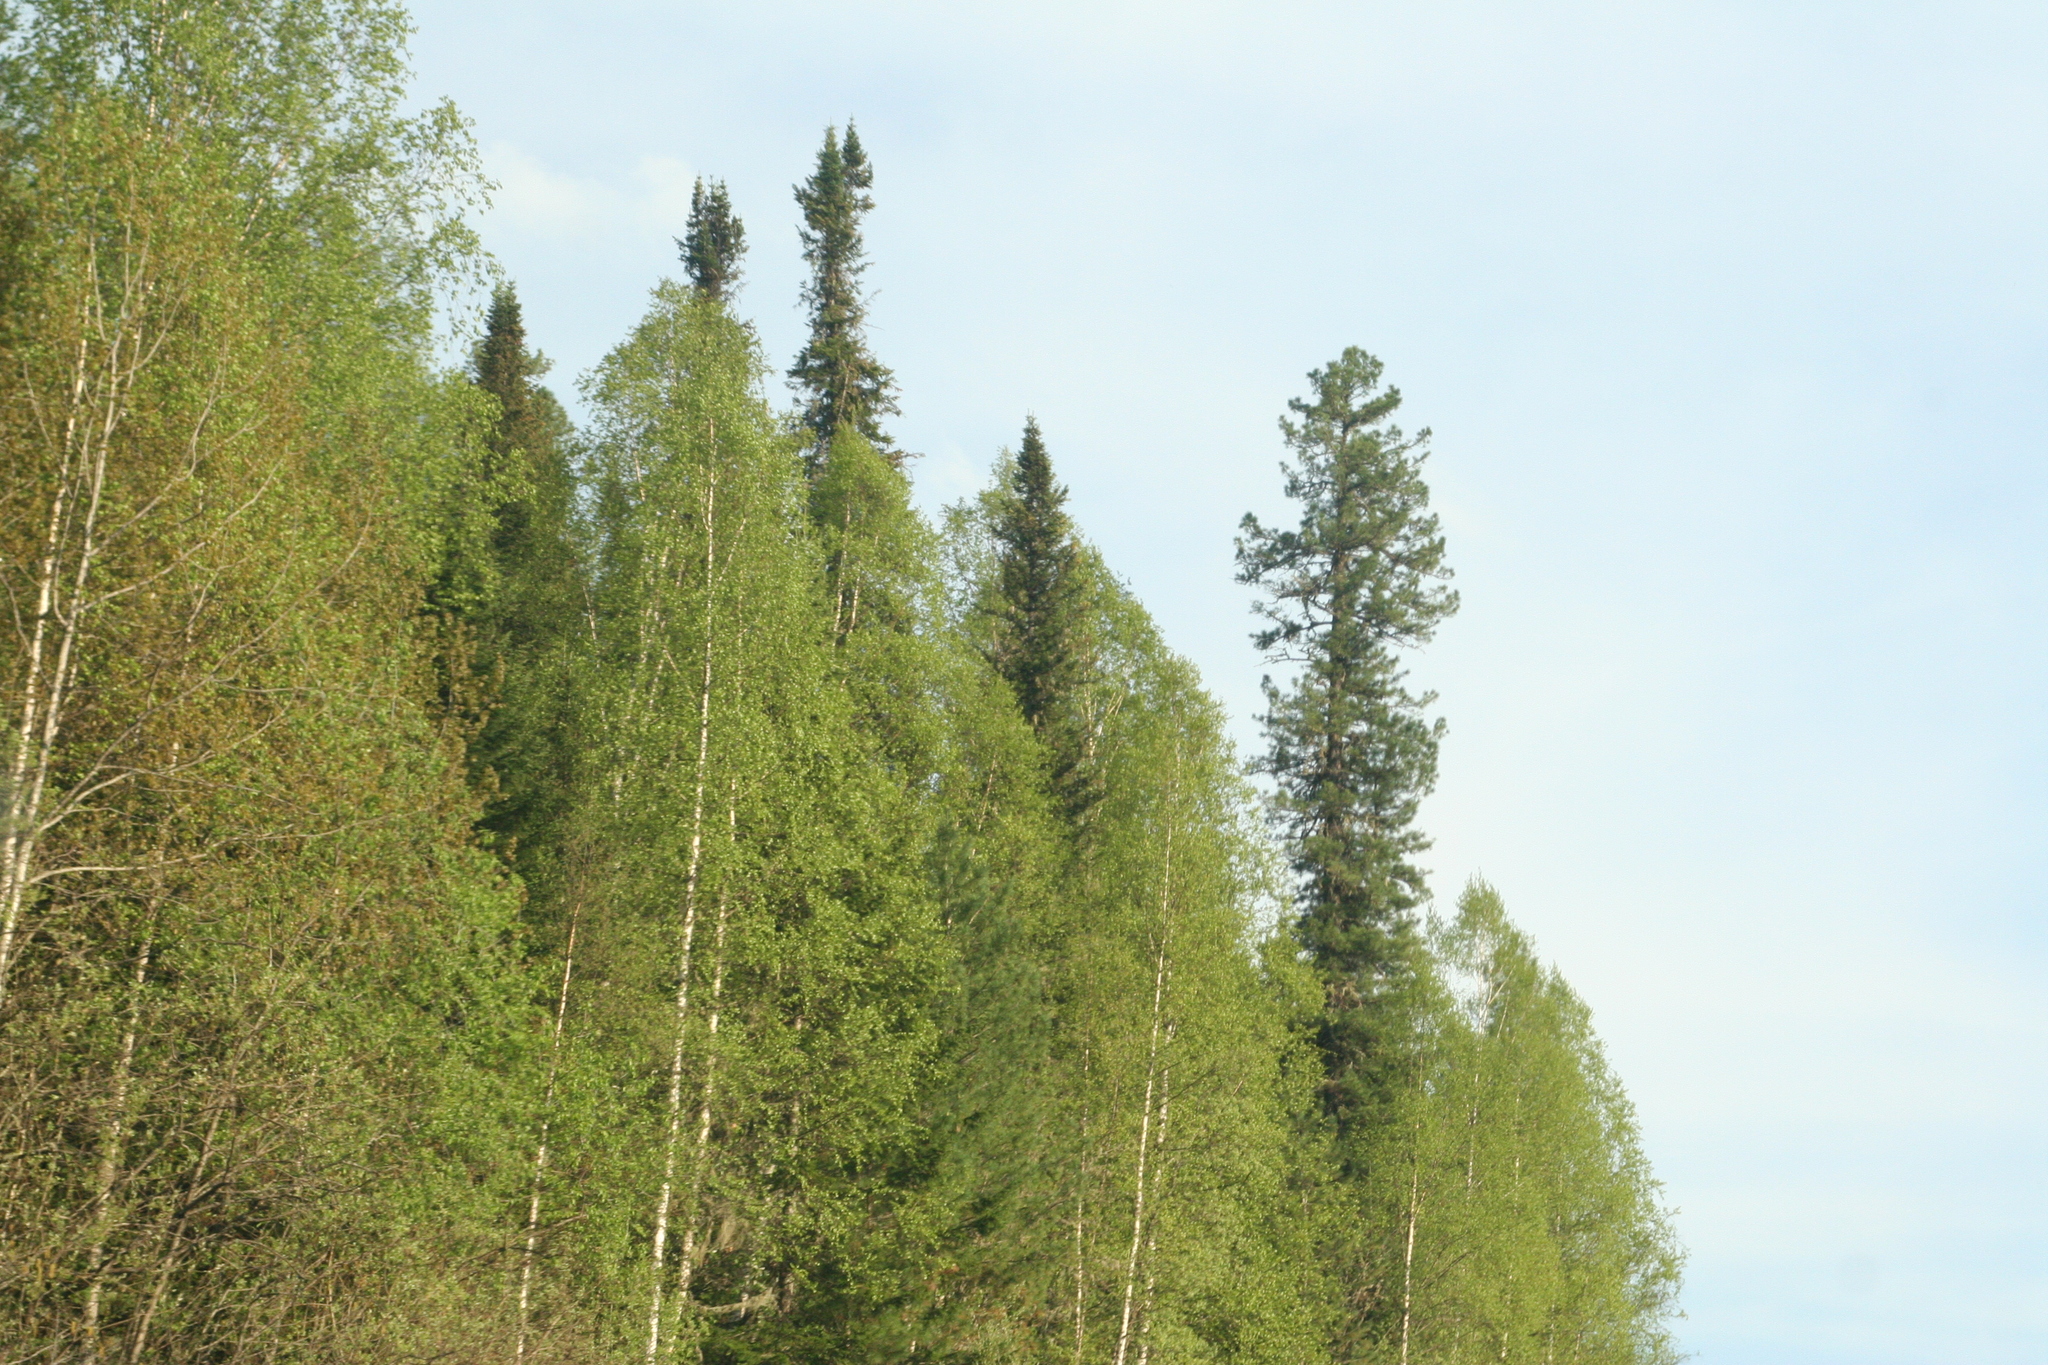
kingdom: Plantae
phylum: Tracheophyta
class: Pinopsida
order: Pinales
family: Pinaceae
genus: Pinus
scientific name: Pinus sibirica
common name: Siberian pine
